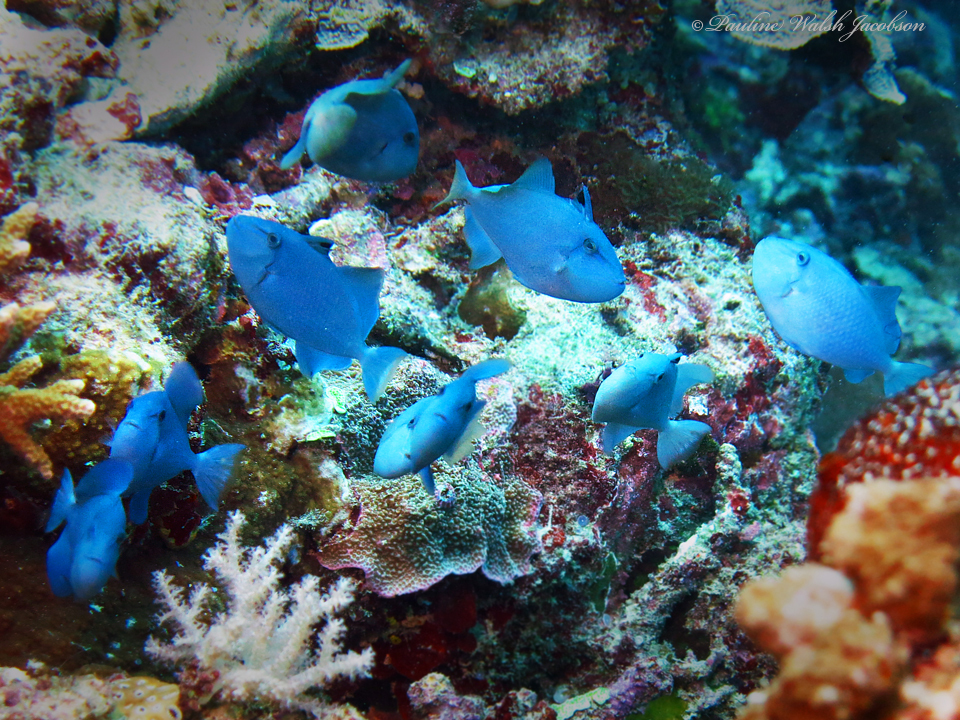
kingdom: Animalia
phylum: Chordata
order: Tetraodontiformes
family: Balistidae
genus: Odonus
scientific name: Odonus niger
